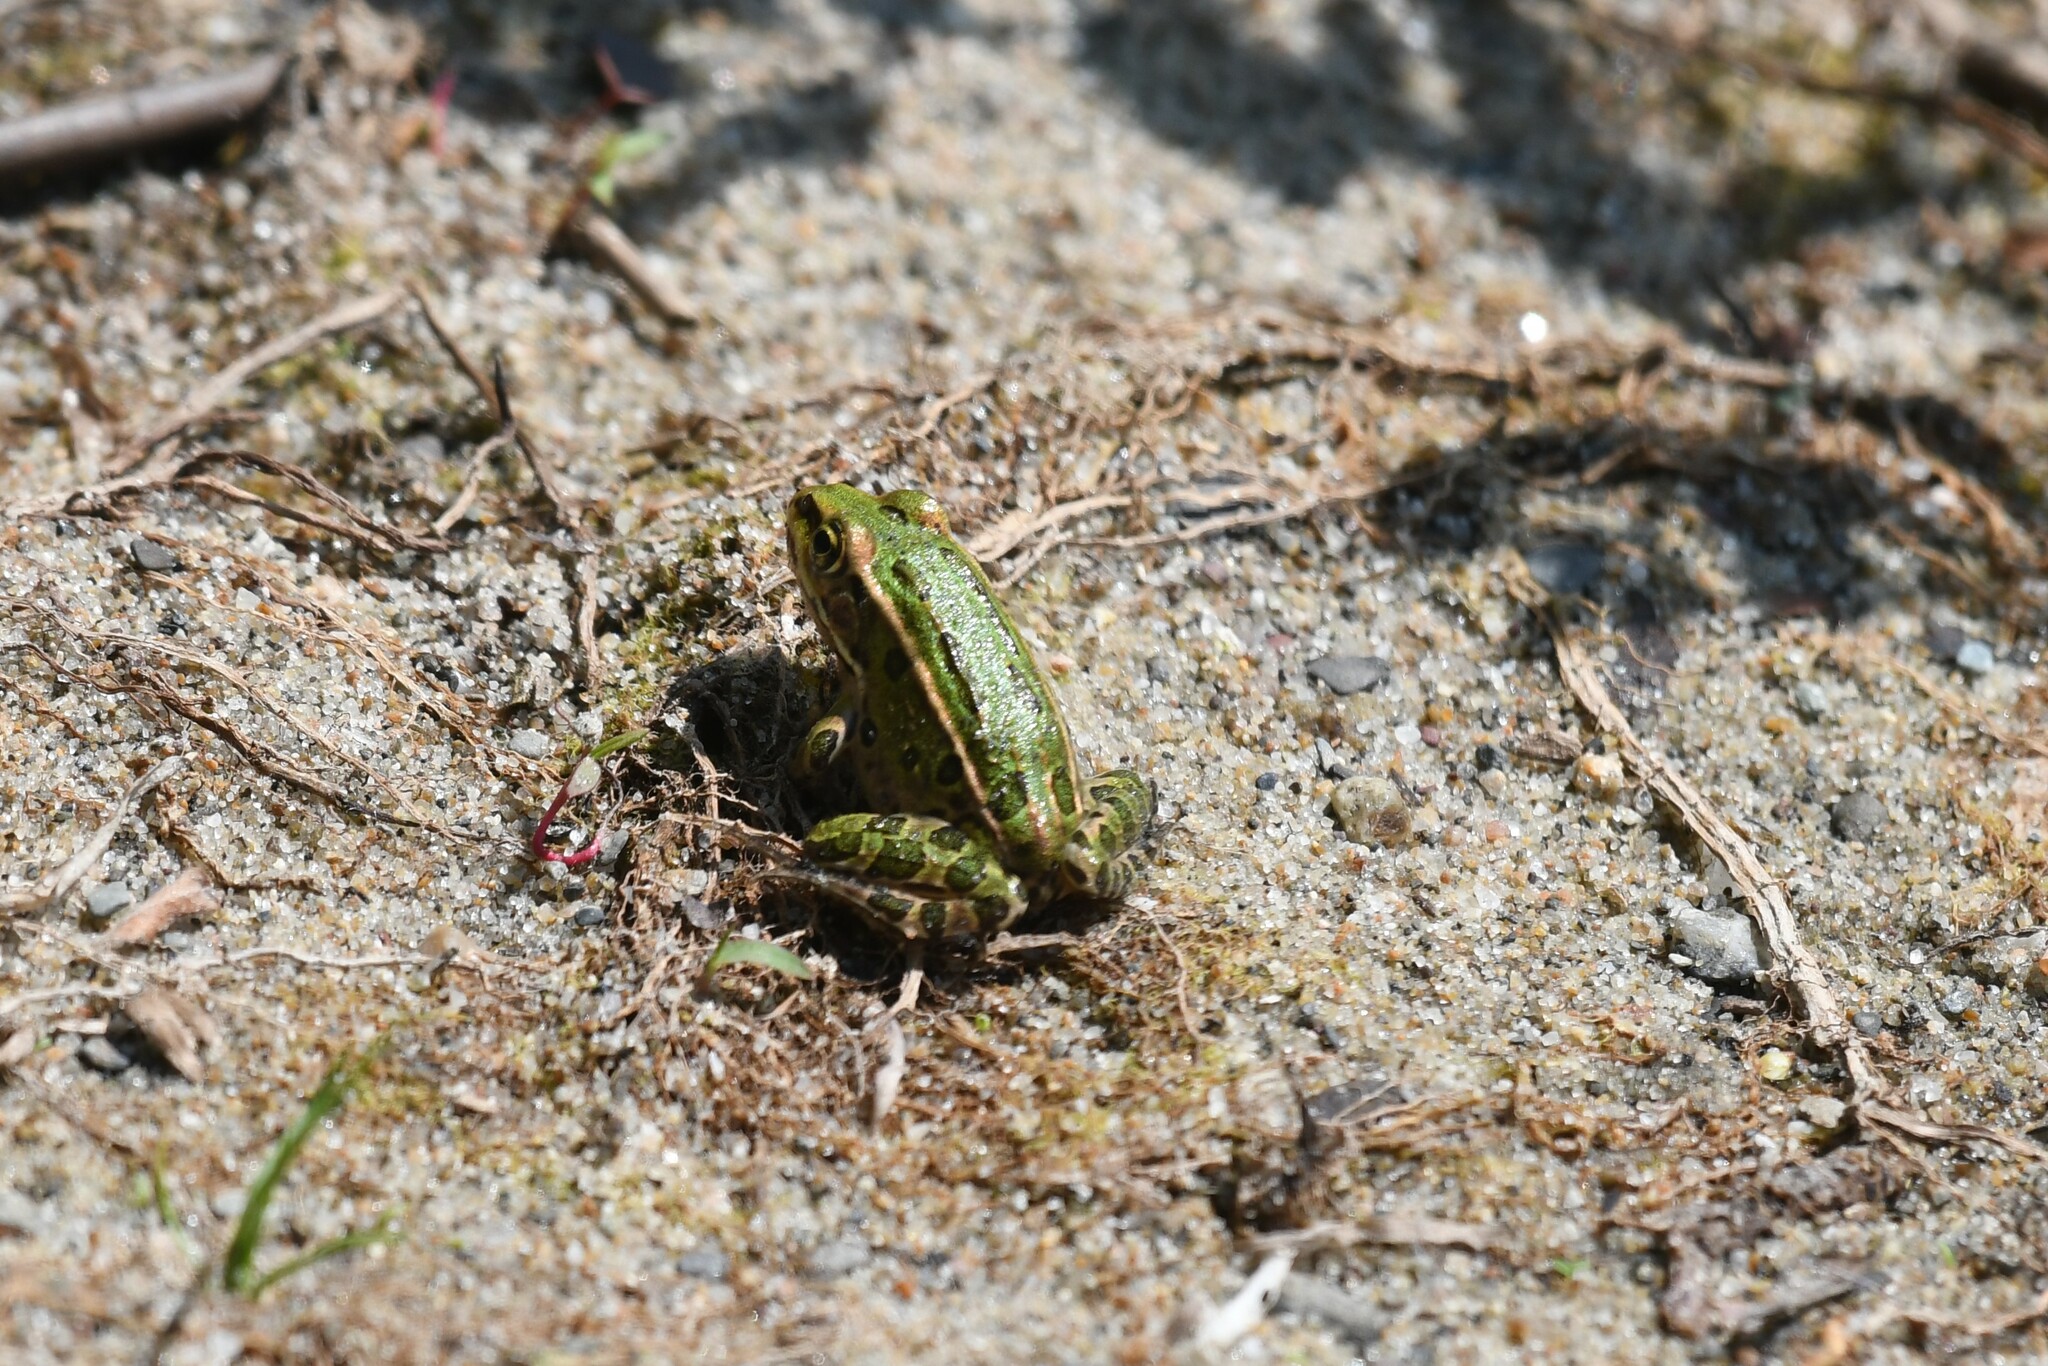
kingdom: Animalia
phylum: Chordata
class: Amphibia
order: Anura
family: Ranidae
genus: Lithobates
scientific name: Lithobates pipiens
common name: Northern leopard frog
